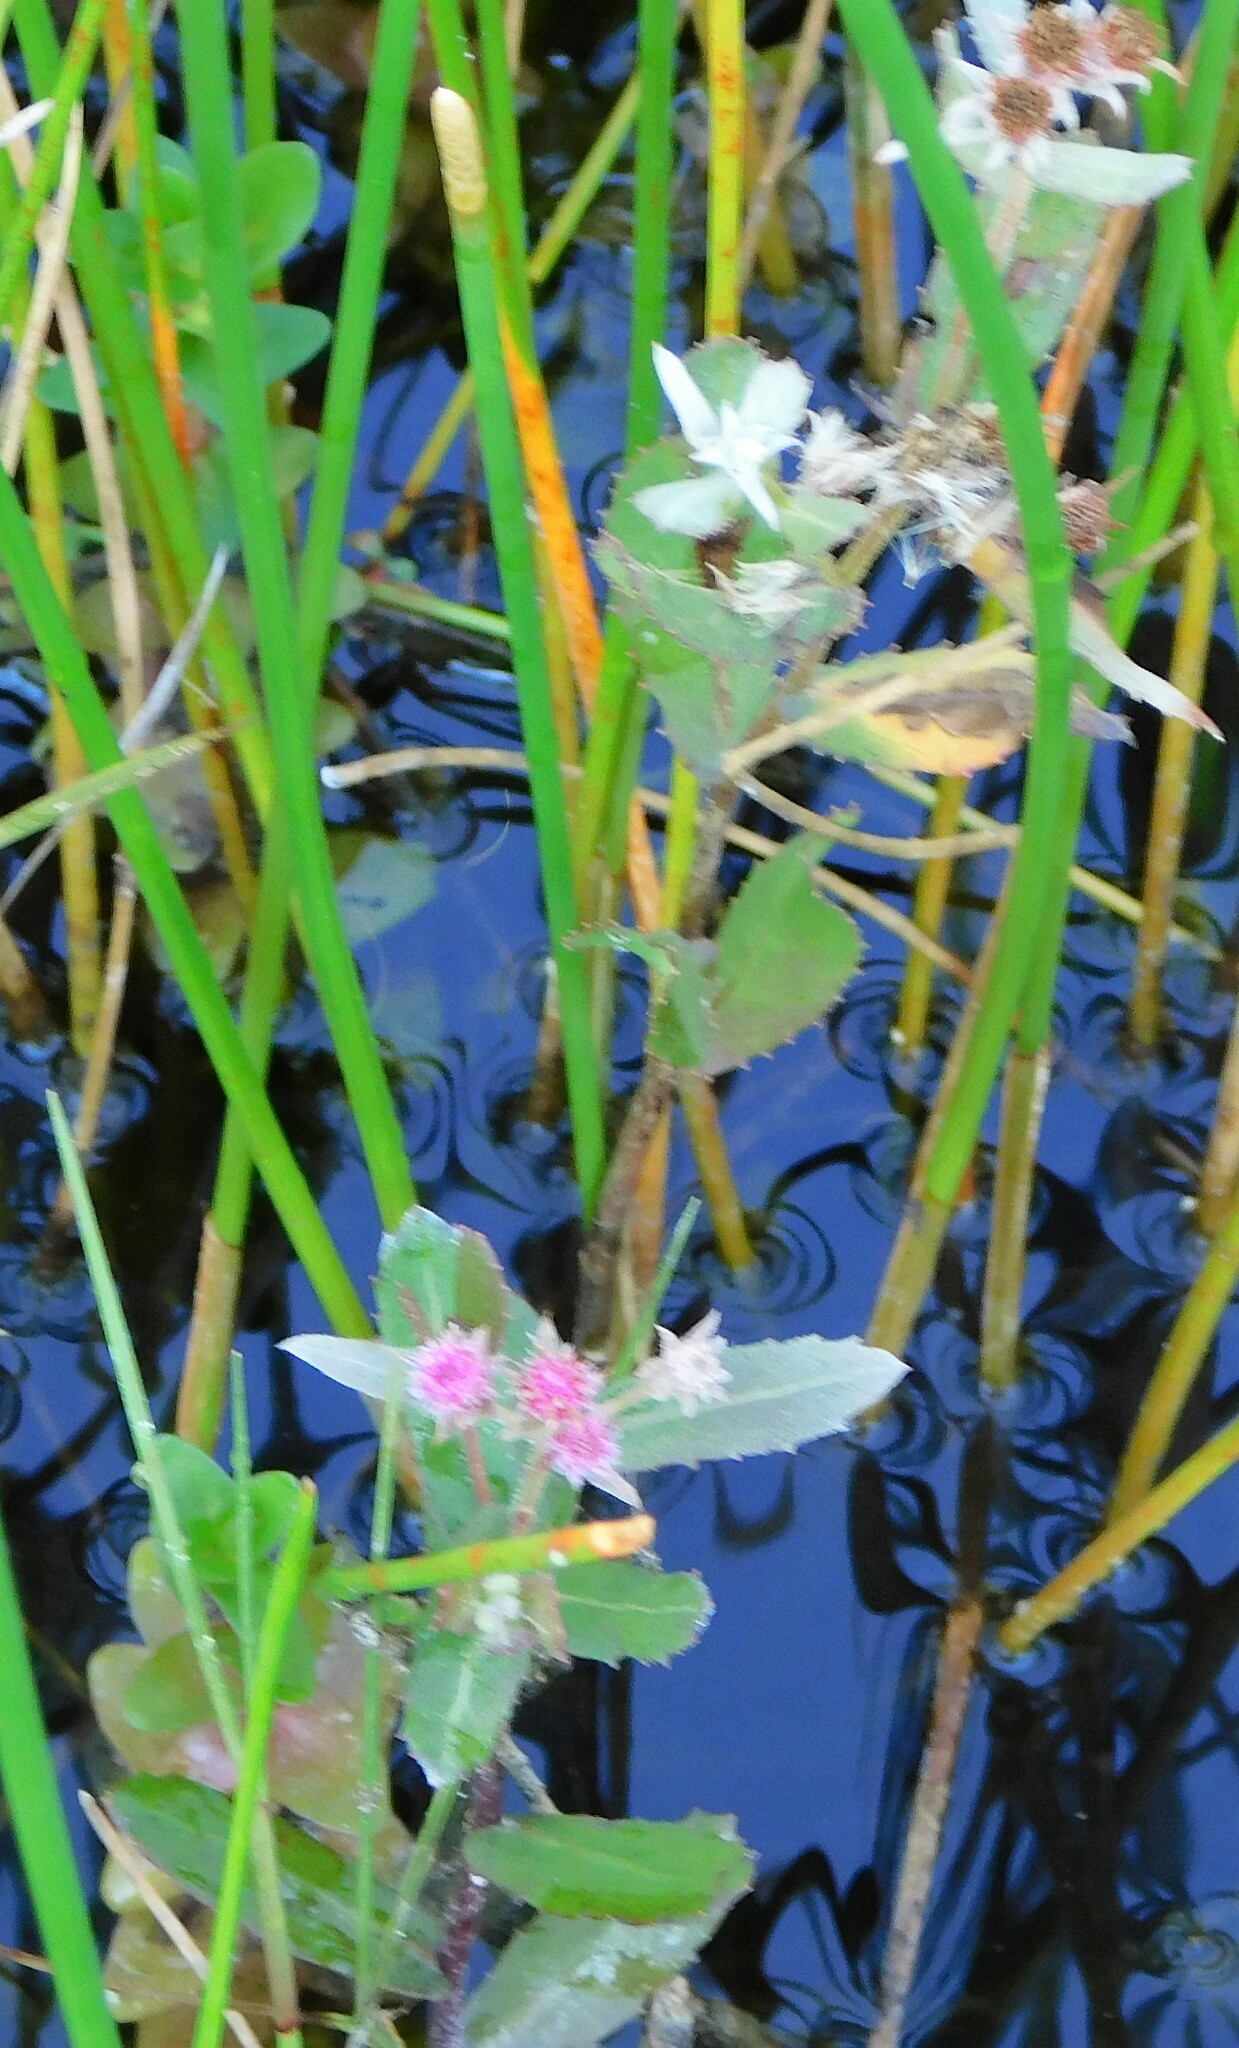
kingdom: Plantae
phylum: Tracheophyta
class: Magnoliopsida
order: Asterales
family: Asteraceae
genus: Pluchea
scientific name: Pluchea baccharis
